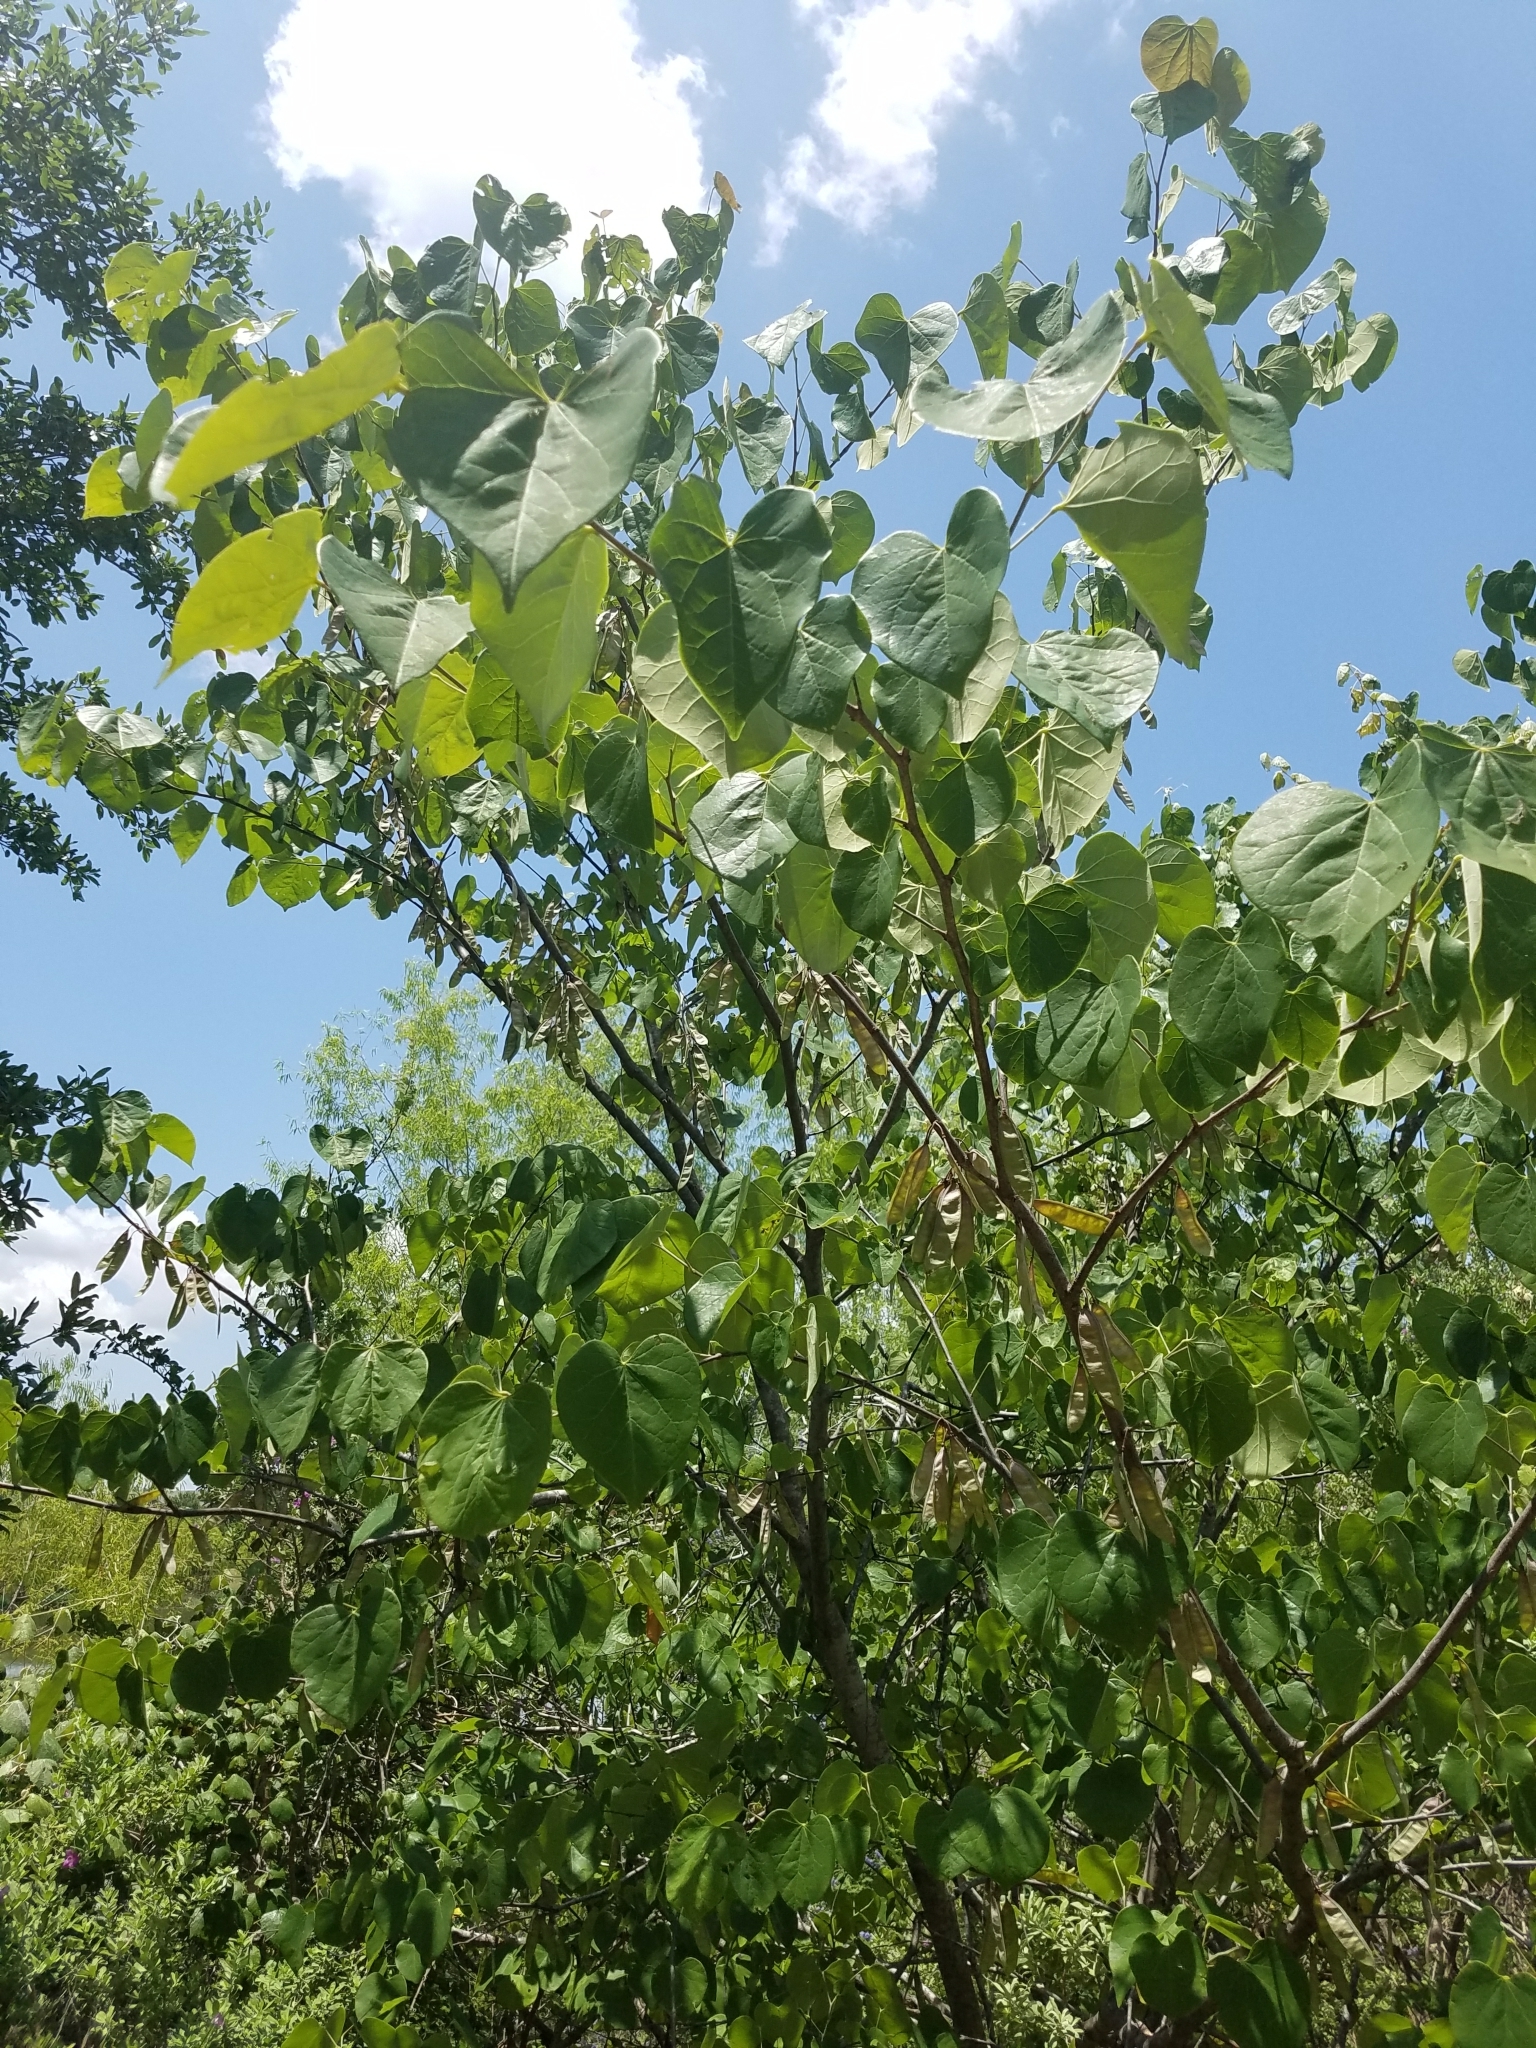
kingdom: Plantae
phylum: Tracheophyta
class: Magnoliopsida
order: Fabales
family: Fabaceae
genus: Cercis
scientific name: Cercis canadensis
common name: Eastern redbud
